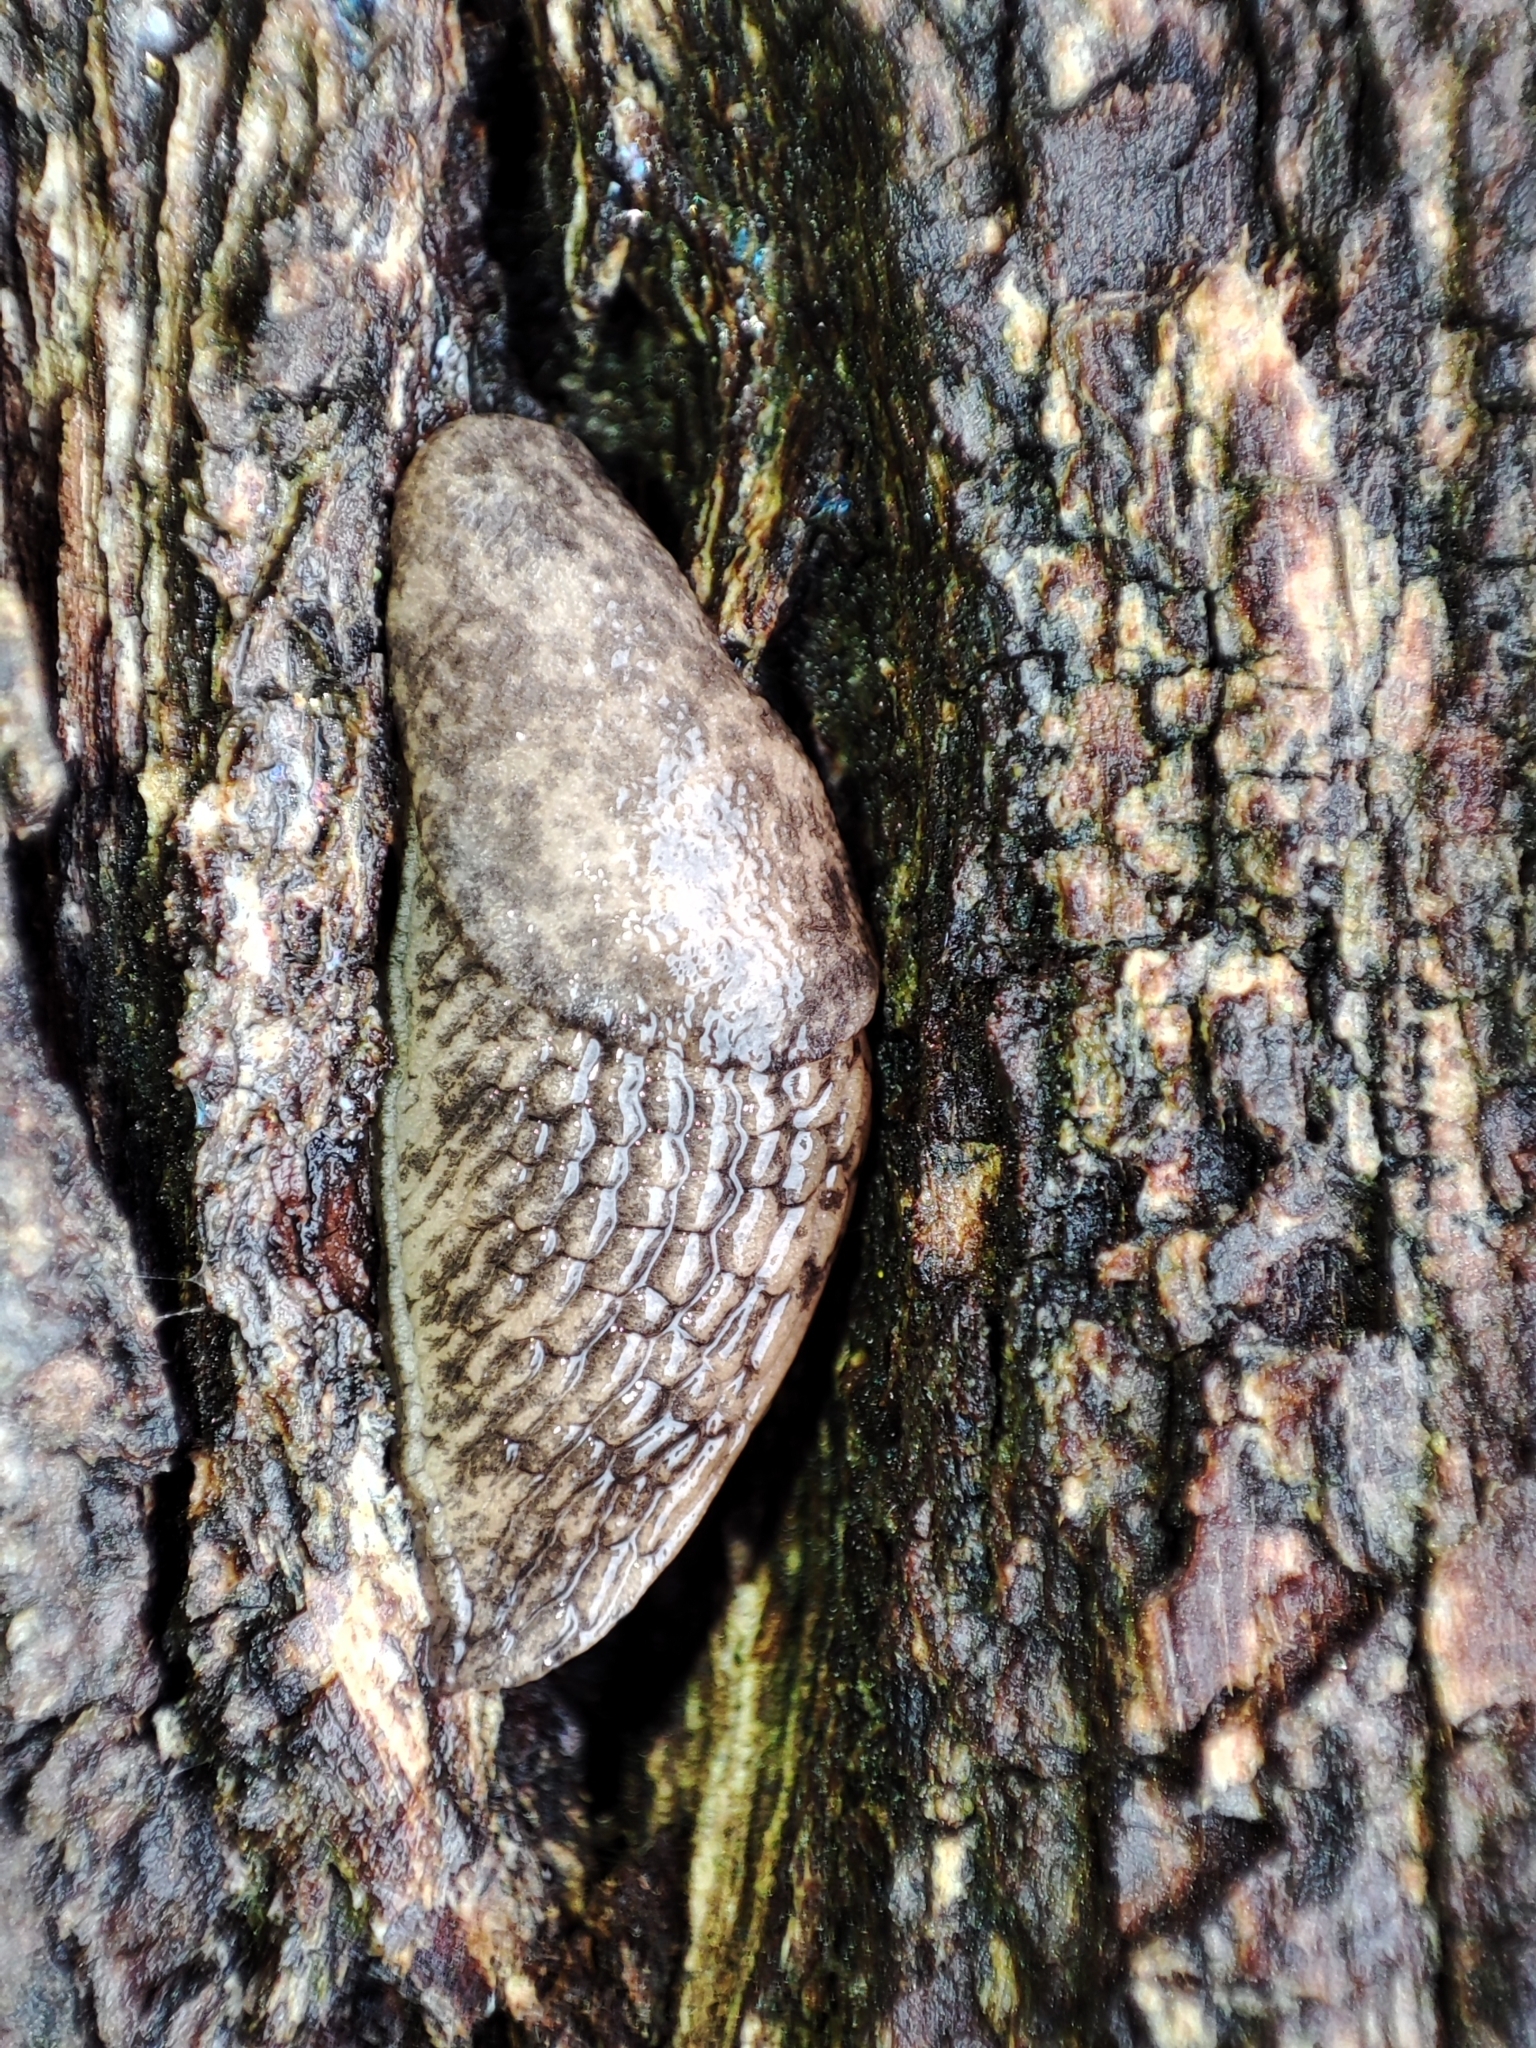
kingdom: Animalia
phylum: Mollusca
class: Gastropoda
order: Stylommatophora
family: Agriolimacidae
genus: Deroceras
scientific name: Deroceras reticulatum
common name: Gray field slug
